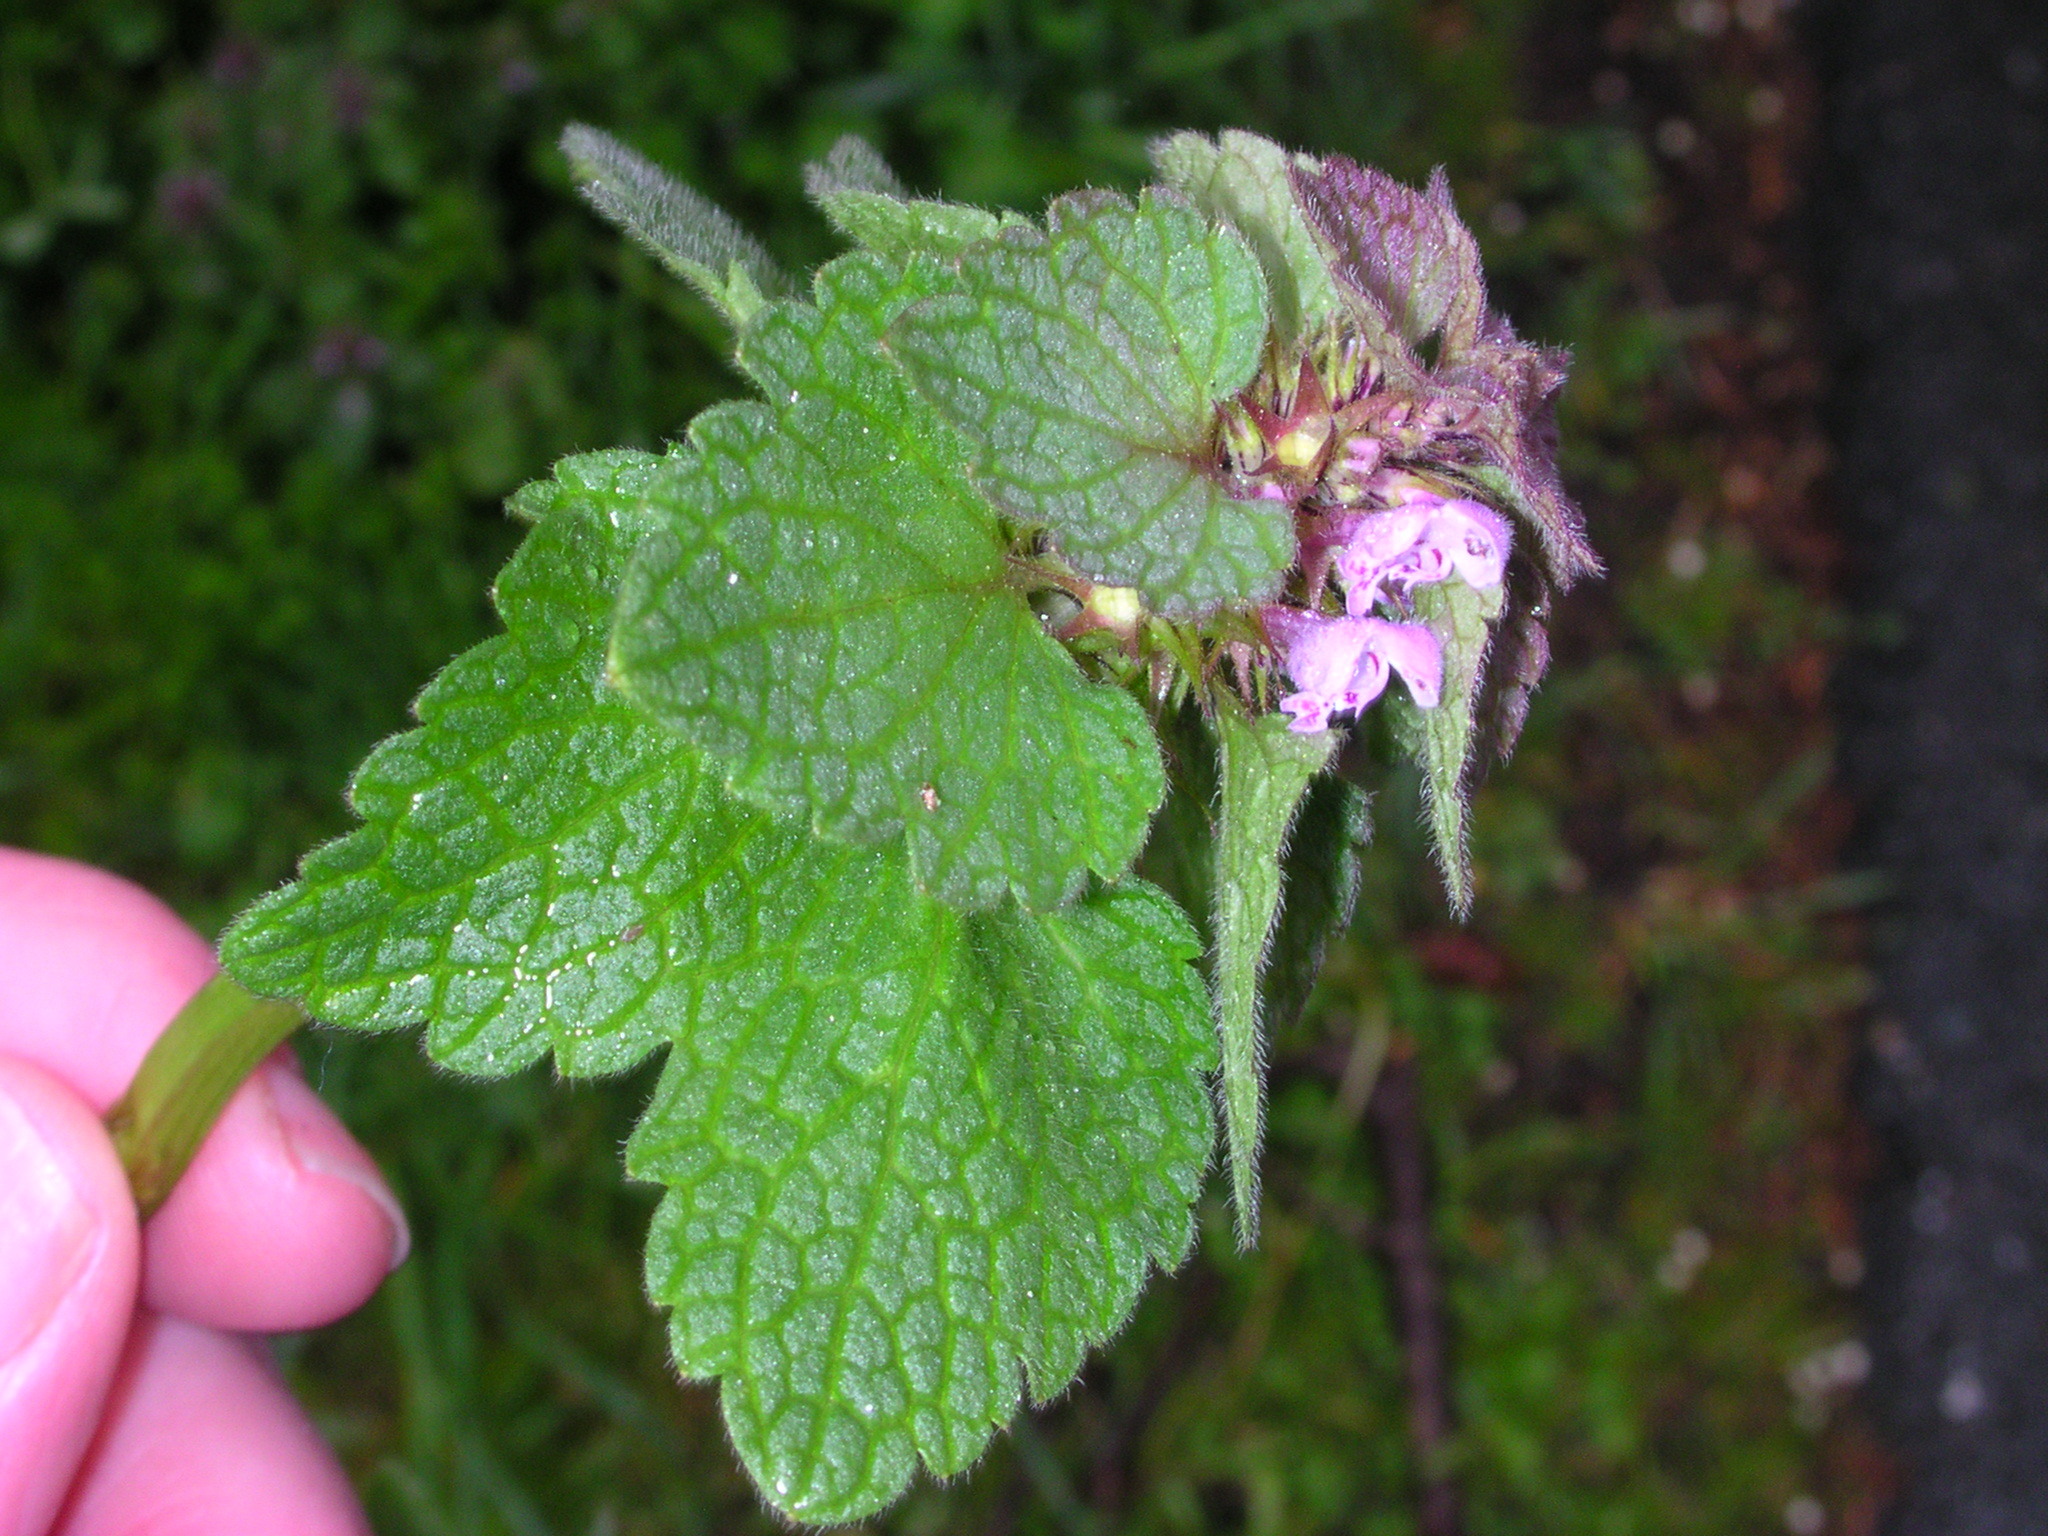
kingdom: Plantae
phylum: Tracheophyta
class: Magnoliopsida
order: Lamiales
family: Lamiaceae
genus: Lamium
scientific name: Lamium purpureum
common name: Red dead-nettle
